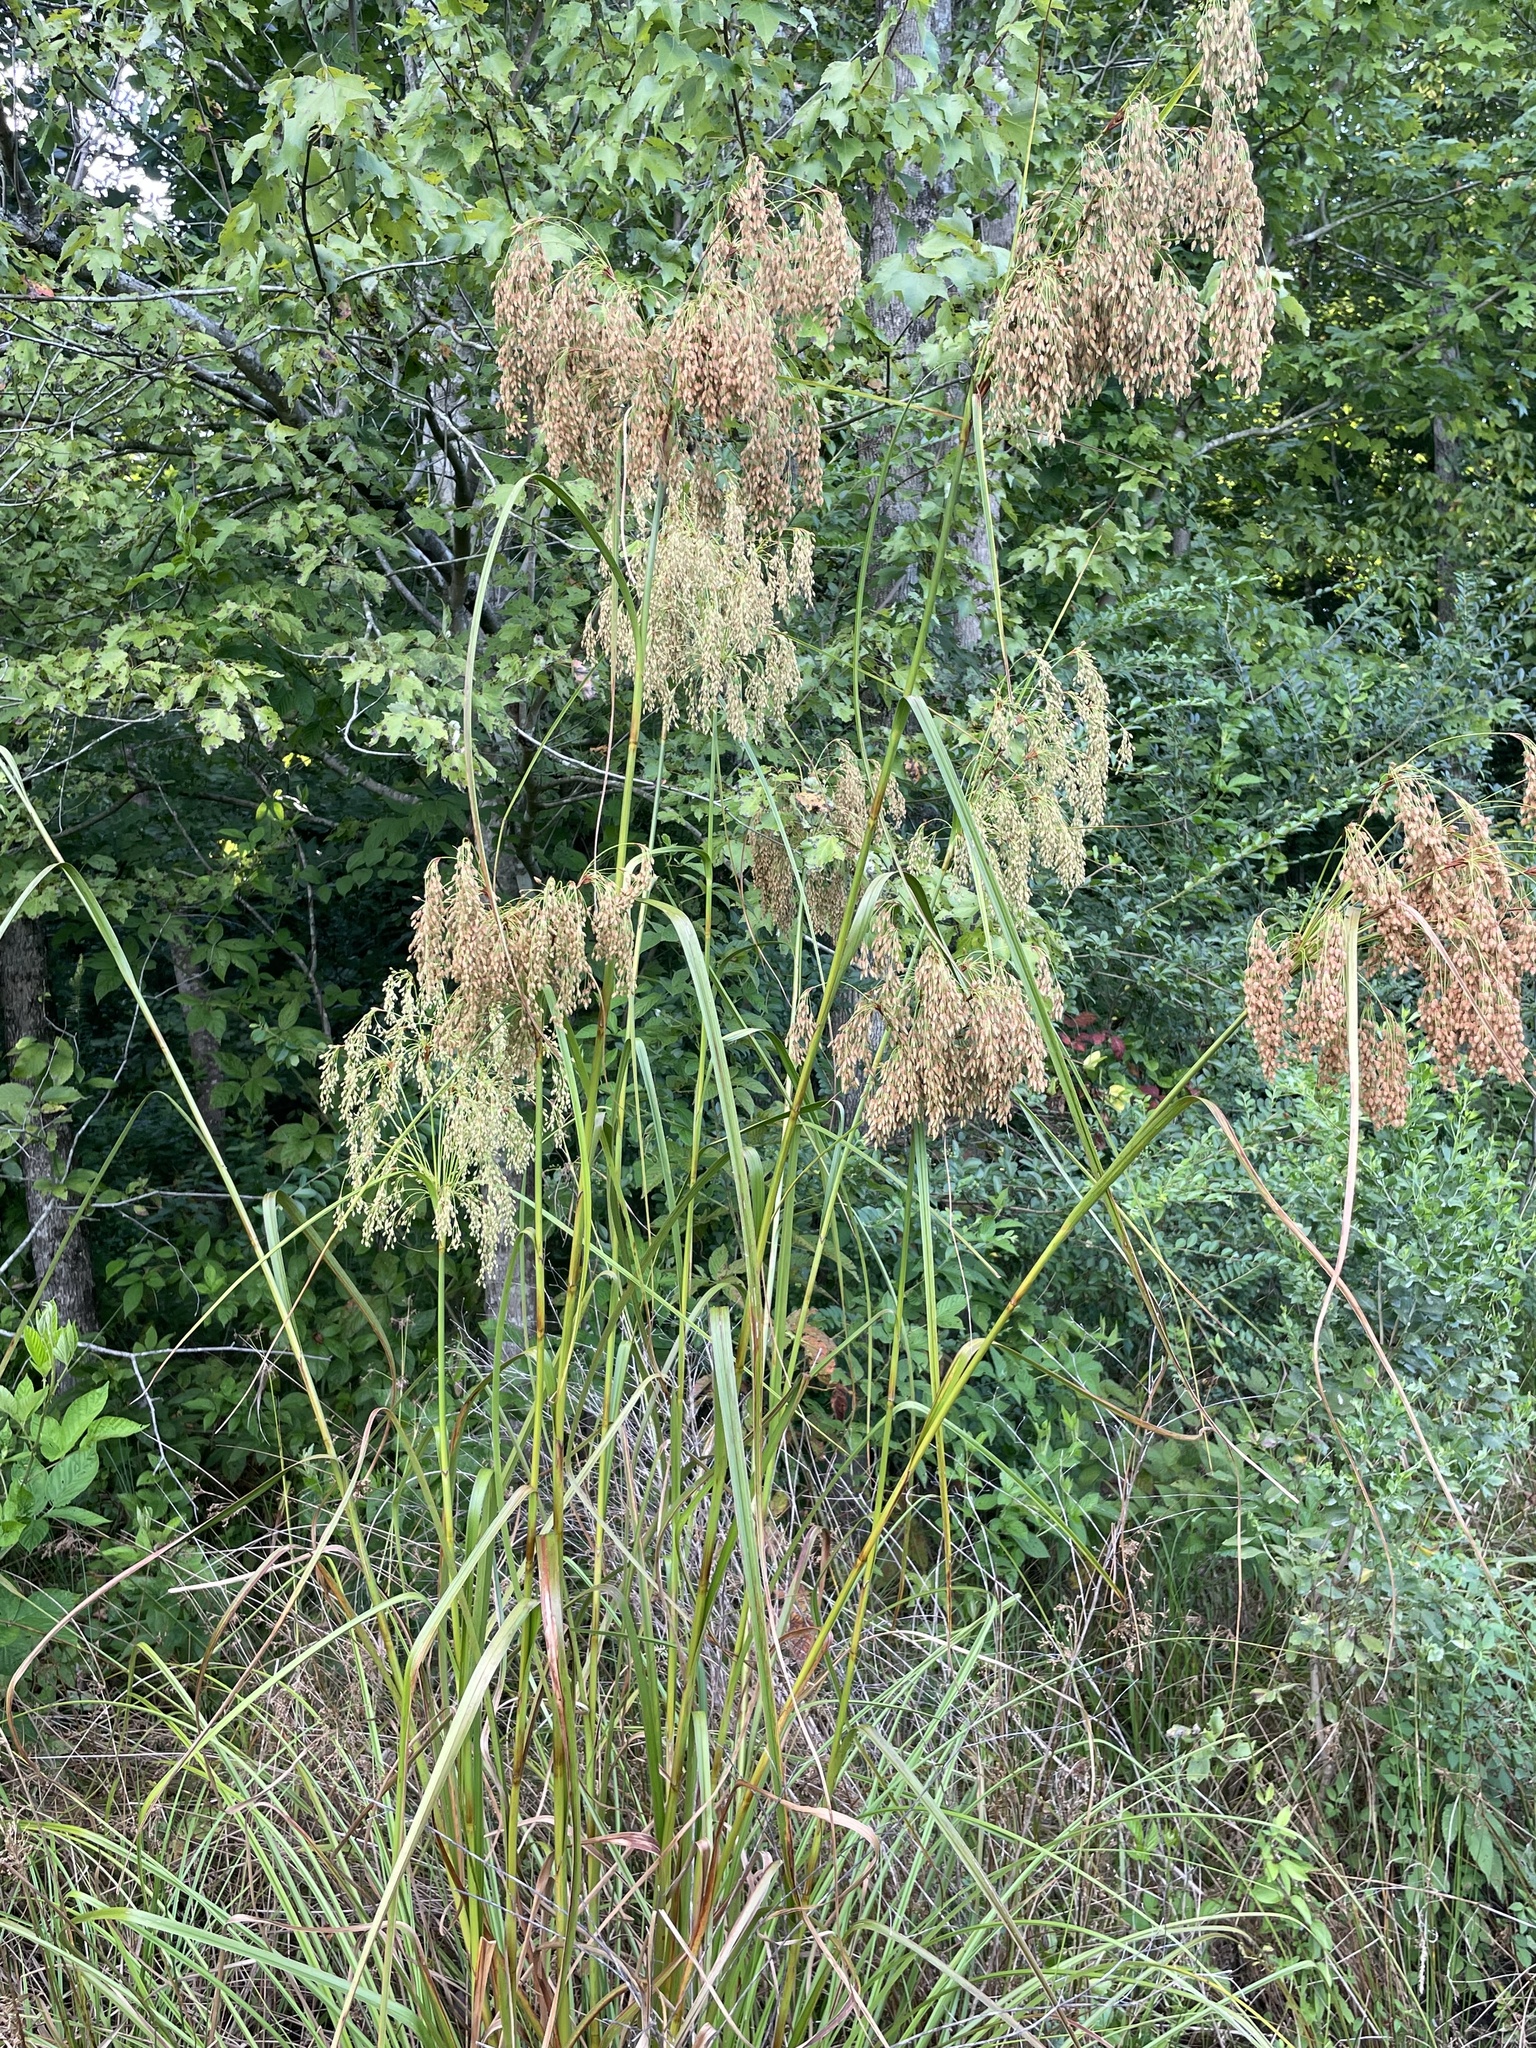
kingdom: Plantae
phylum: Tracheophyta
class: Liliopsida
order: Poales
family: Cyperaceae
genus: Scirpus
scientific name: Scirpus cyperinus
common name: Black-sheathed bulrush
